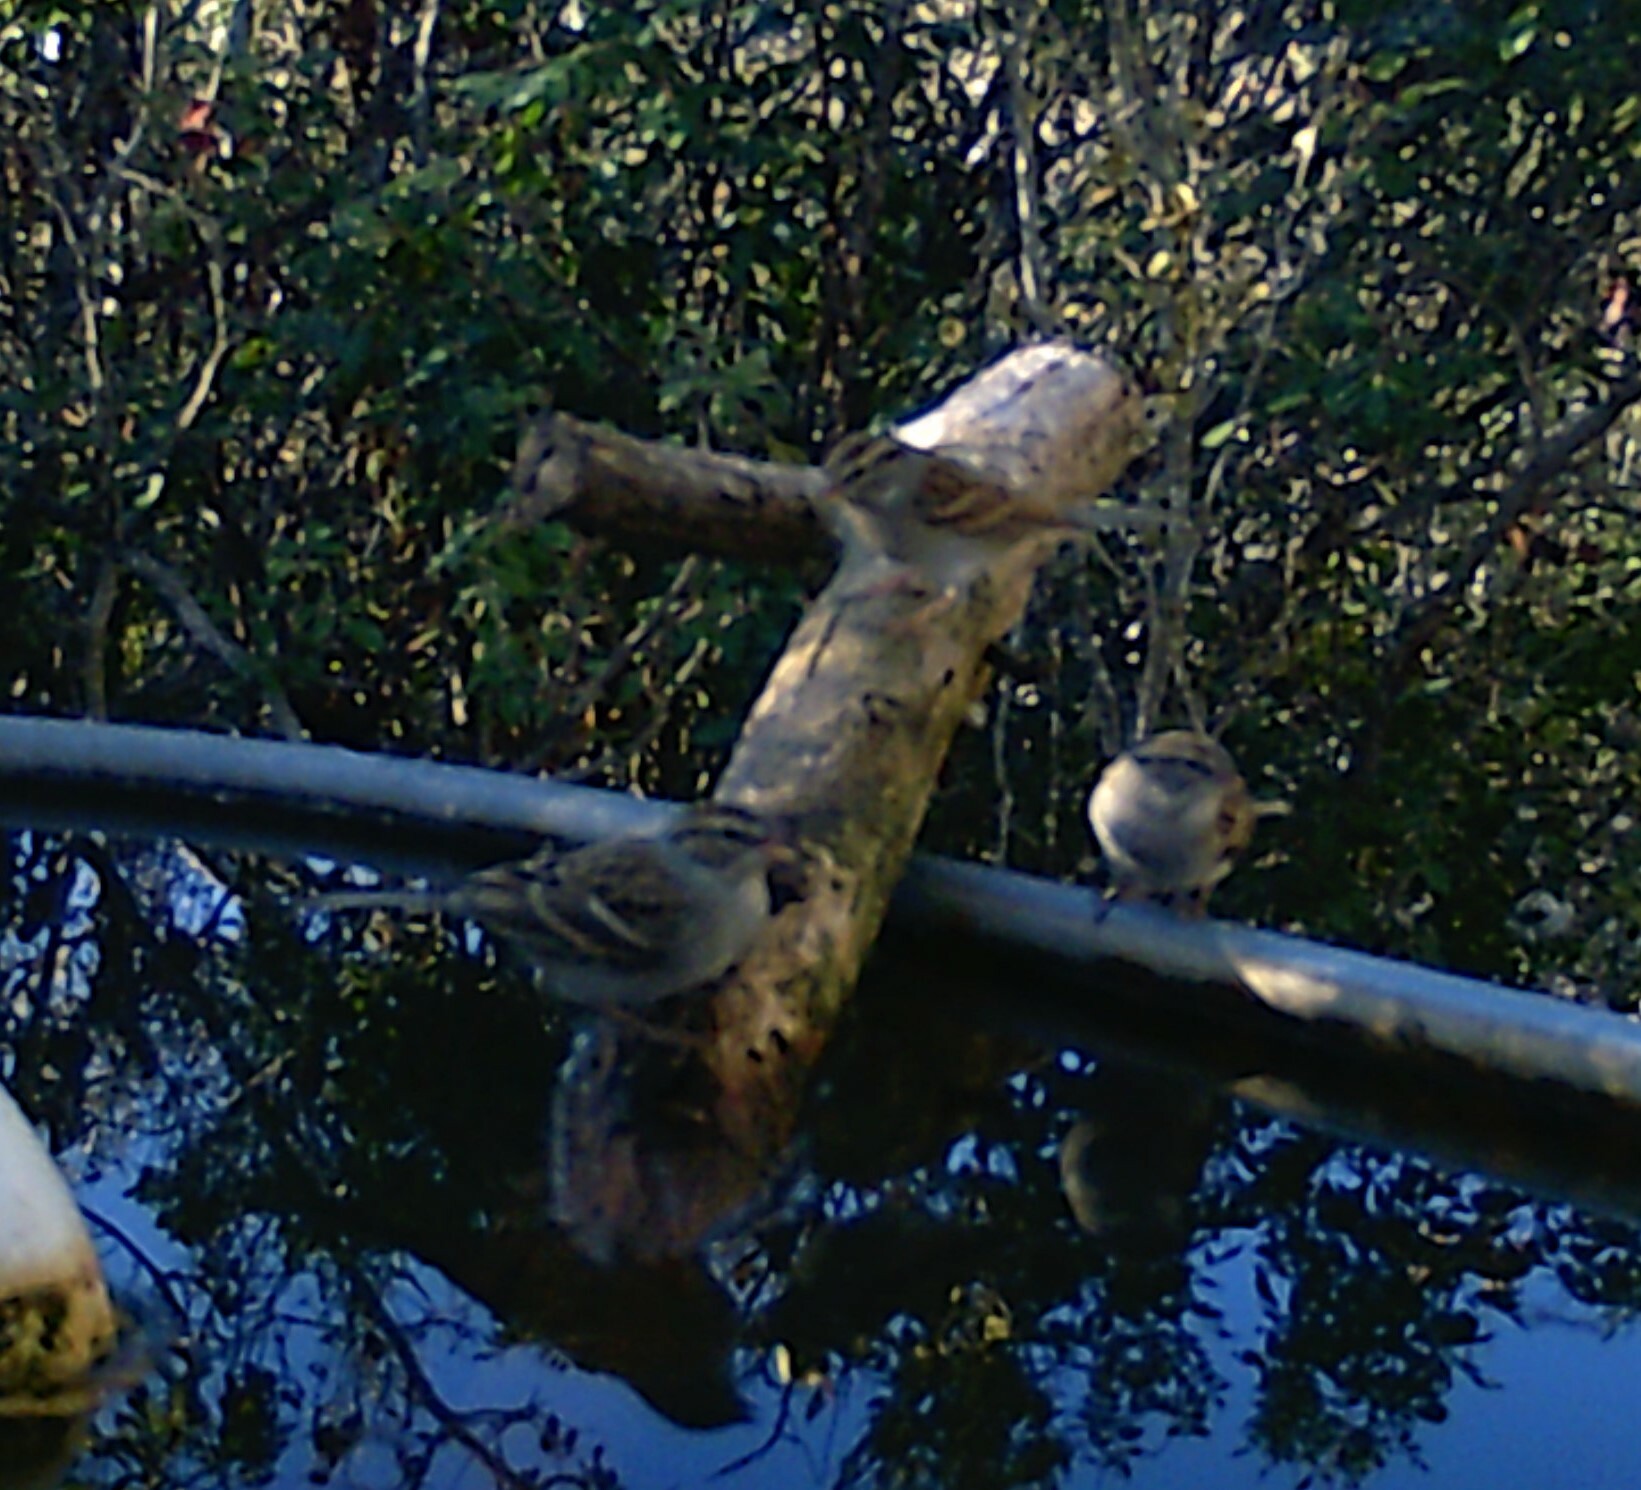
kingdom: Animalia
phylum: Chordata
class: Aves
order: Passeriformes
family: Passerellidae
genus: Spizella
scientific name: Spizella passerina
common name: Chipping sparrow
